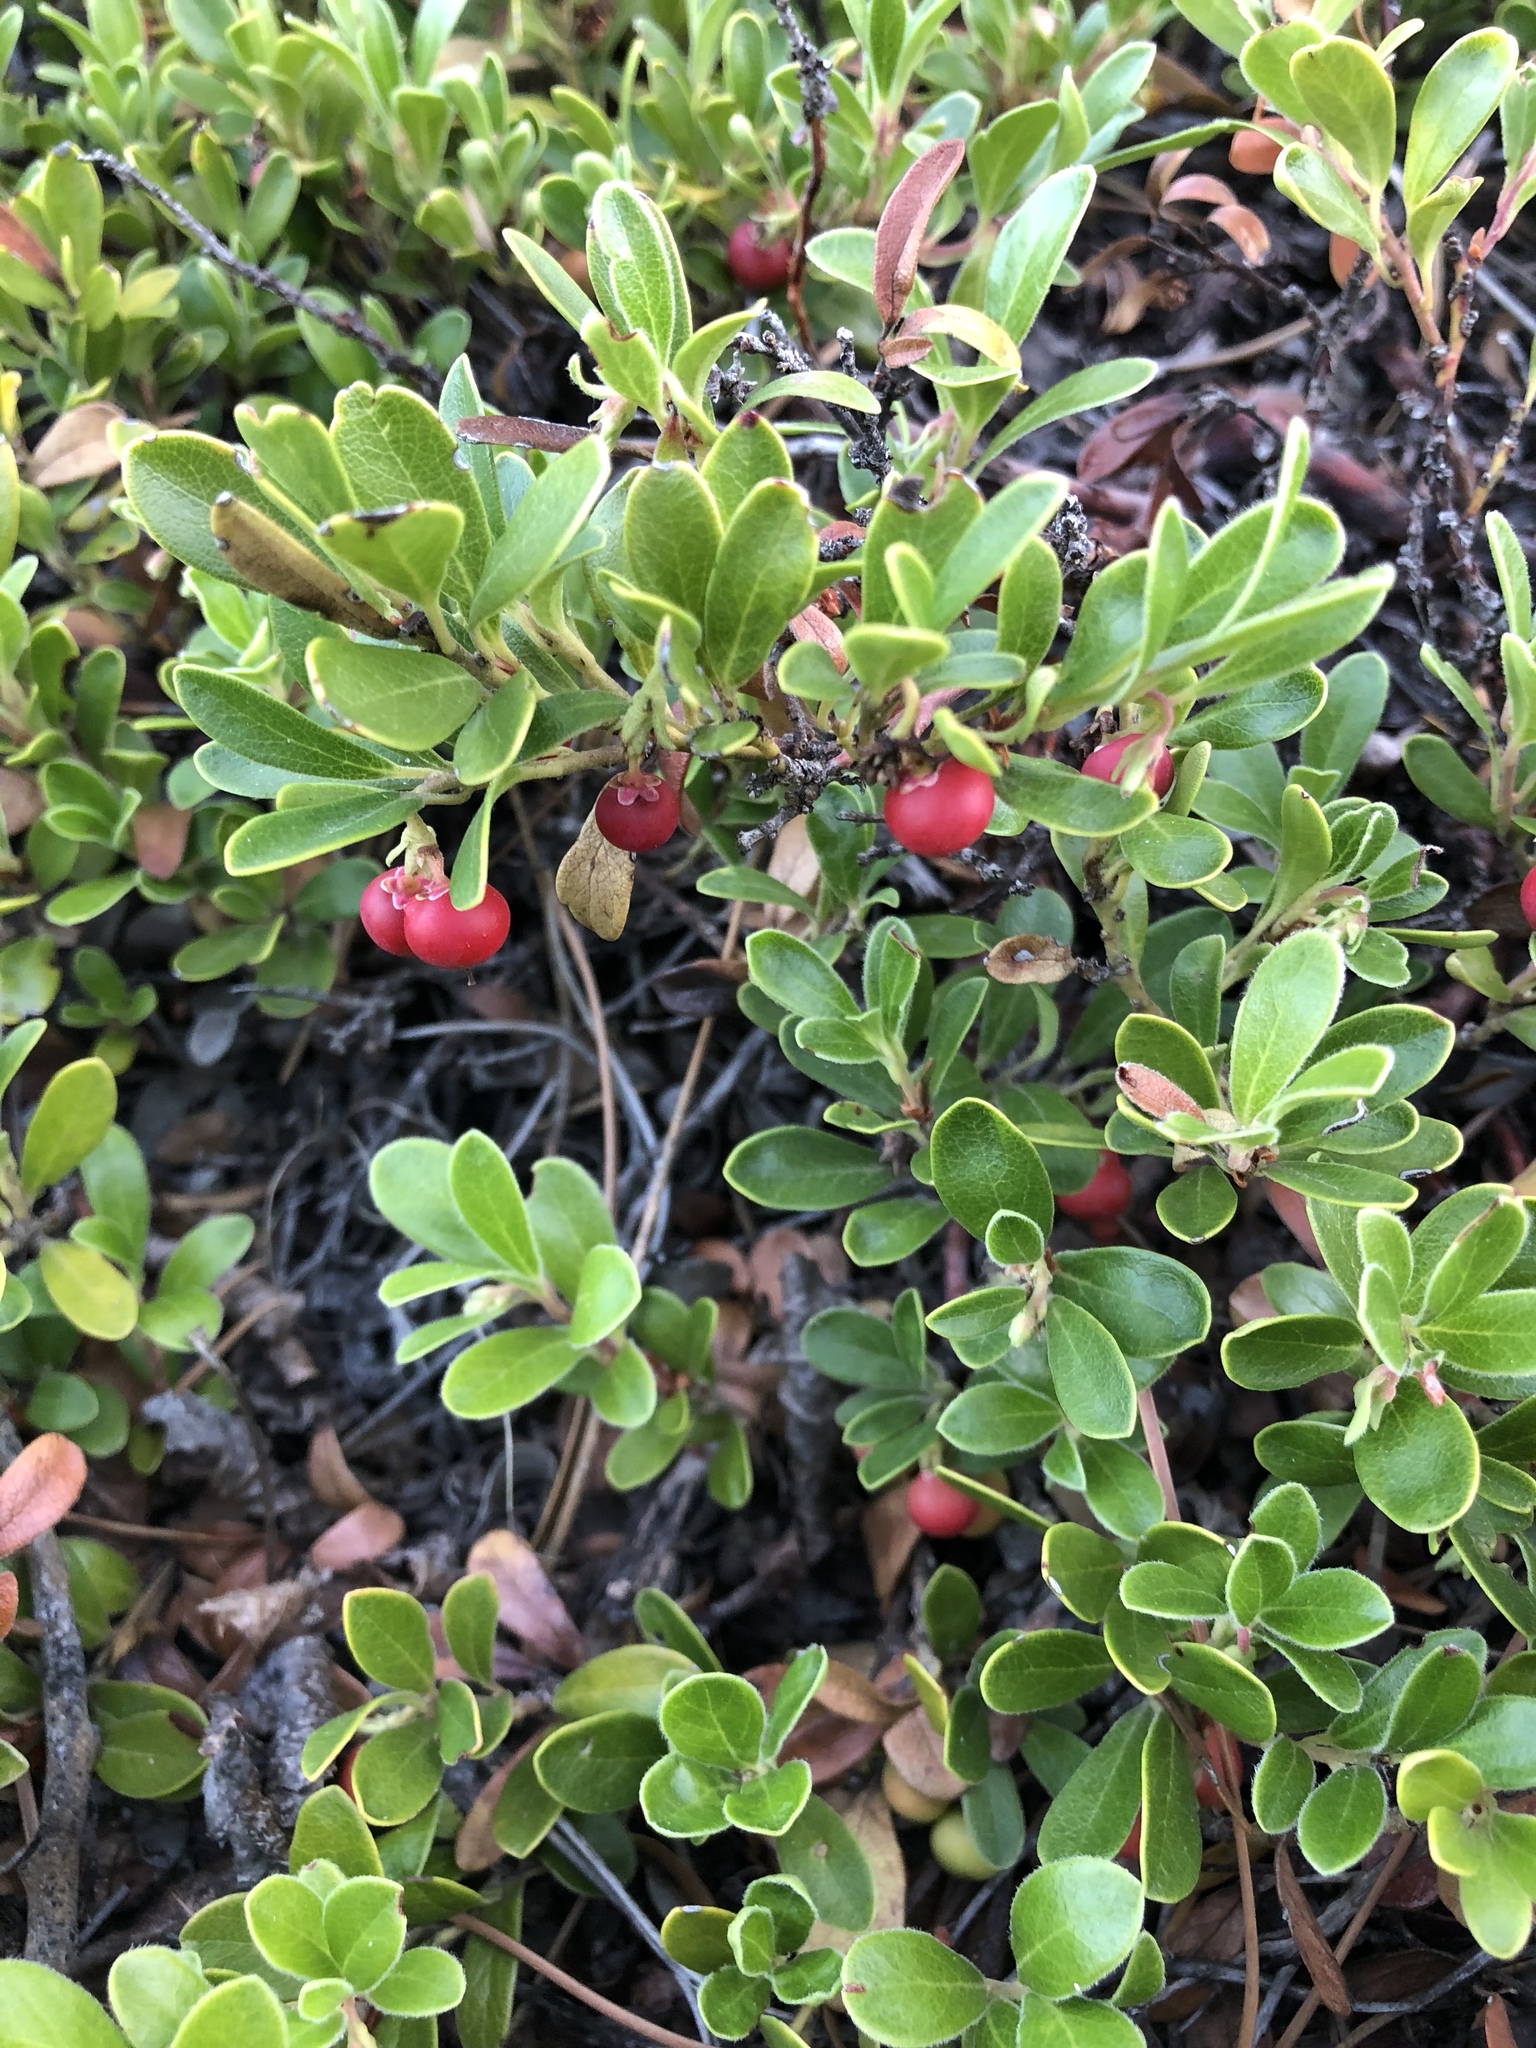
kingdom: Plantae
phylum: Tracheophyta
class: Magnoliopsida
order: Ericales
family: Ericaceae
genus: Arctostaphylos
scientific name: Arctostaphylos uva-ursi
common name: Bearberry
